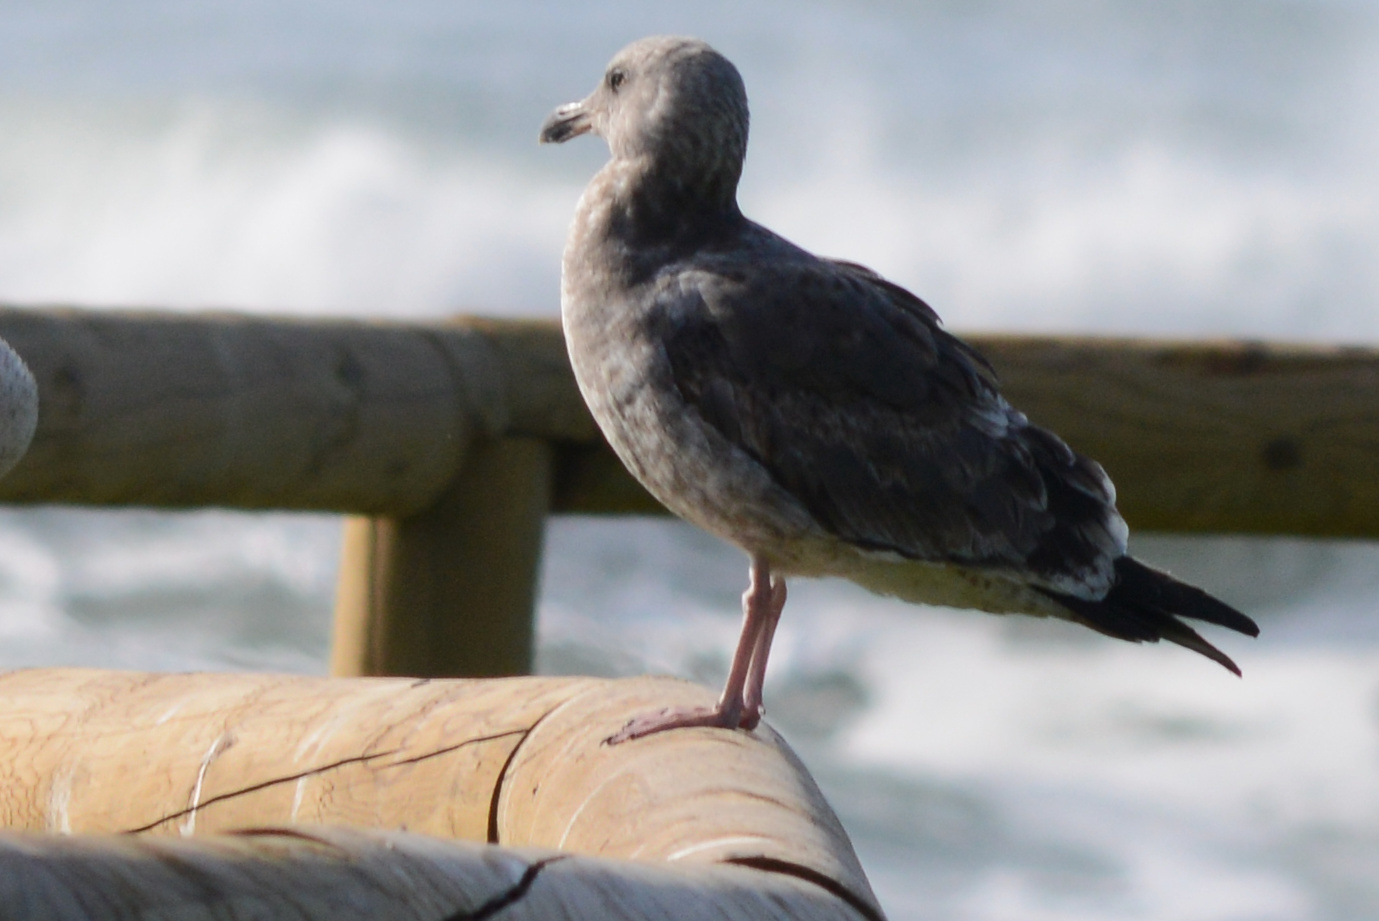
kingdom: Animalia
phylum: Chordata
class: Aves
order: Charadriiformes
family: Laridae
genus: Larus
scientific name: Larus occidentalis
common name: Western gull
